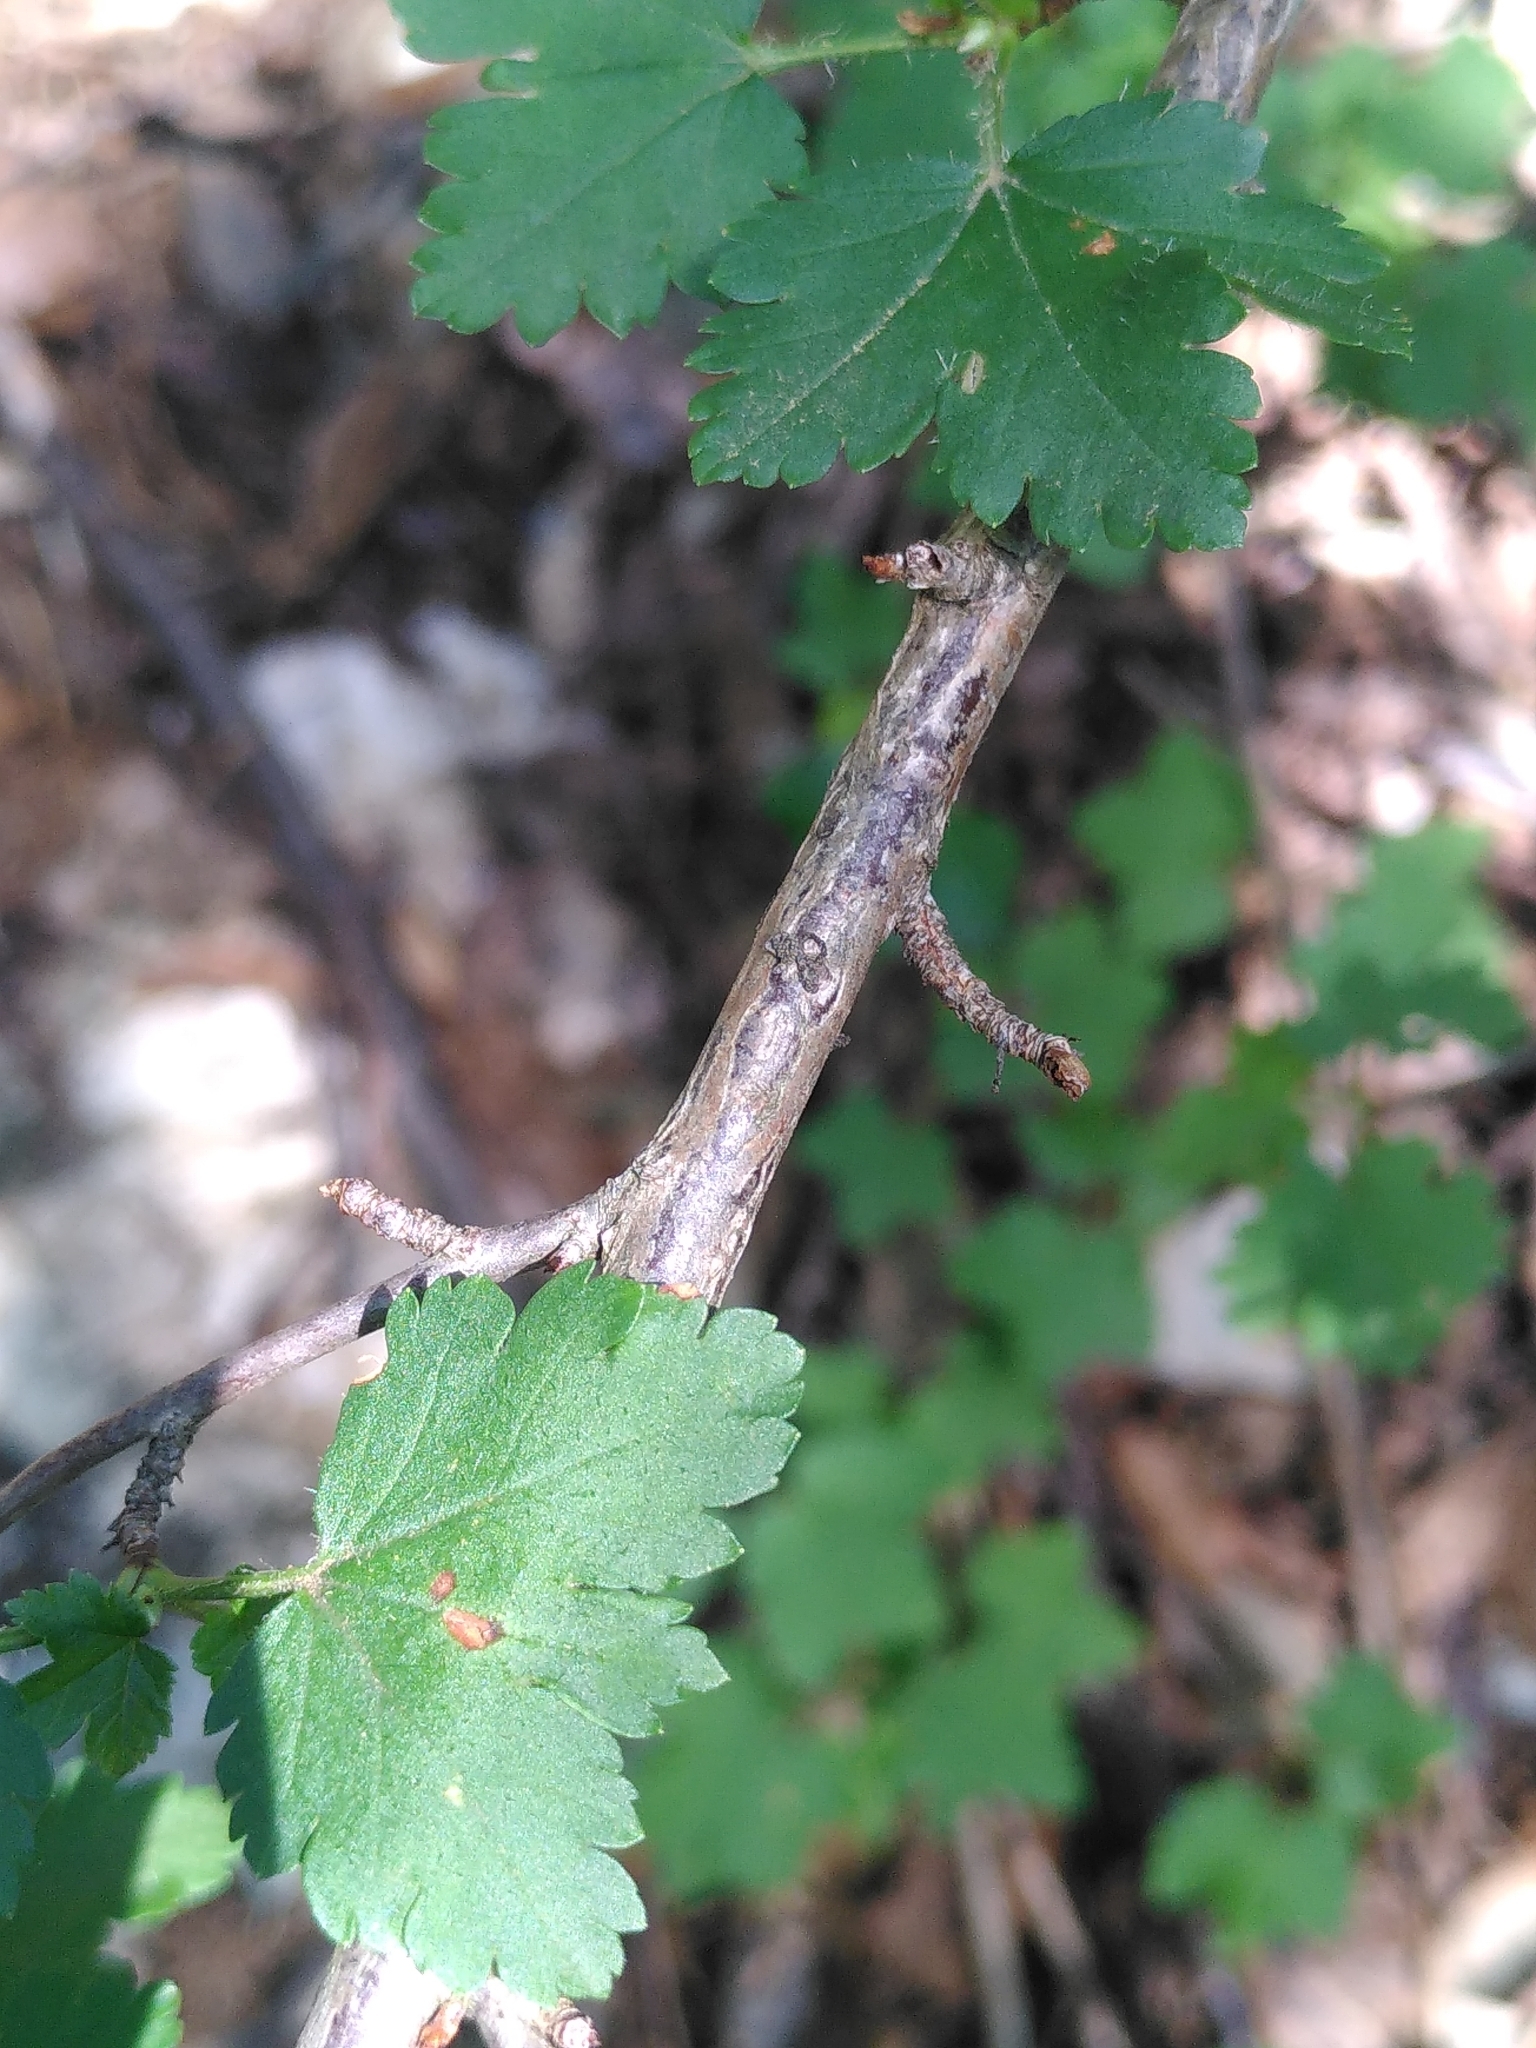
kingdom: Plantae
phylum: Tracheophyta
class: Magnoliopsida
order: Saxifragales
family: Grossulariaceae
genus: Ribes
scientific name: Ribes alpinum
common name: Alpine currant
